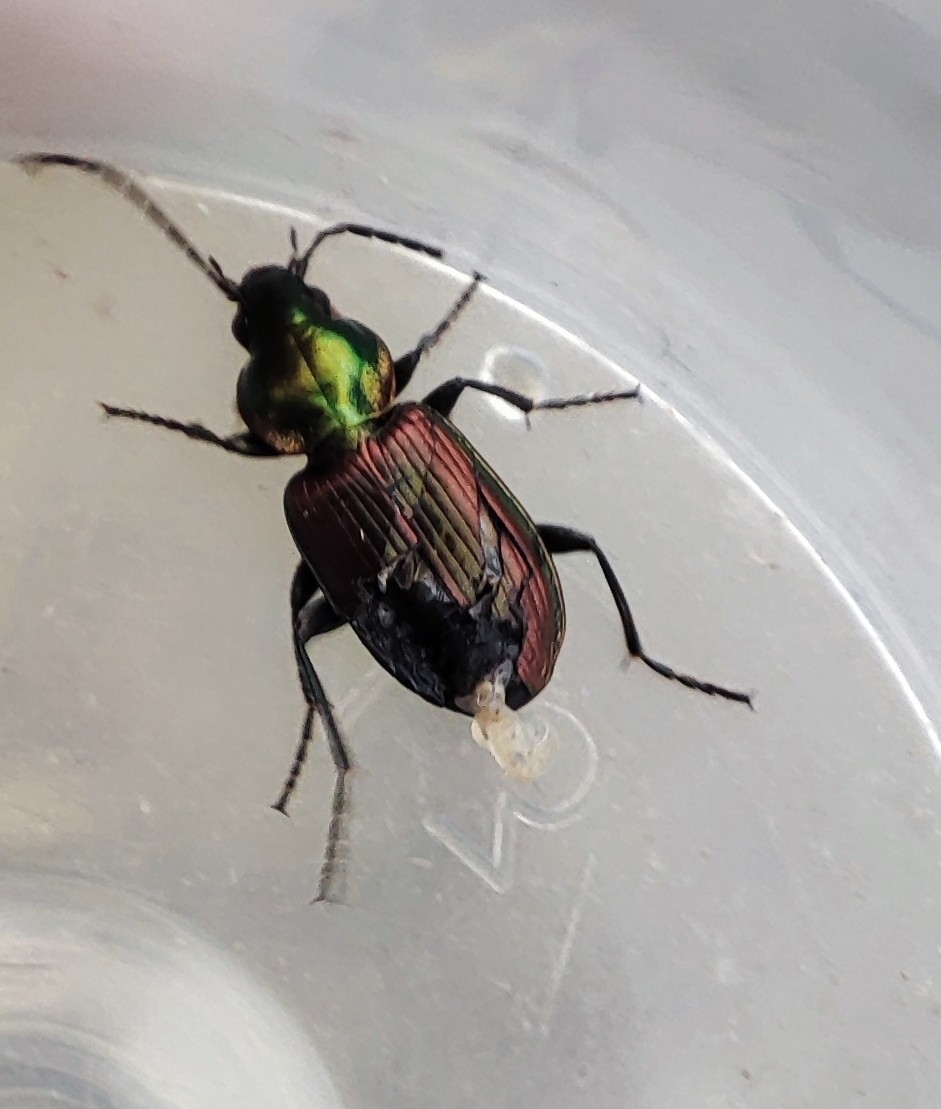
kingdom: Animalia
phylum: Arthropoda
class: Insecta
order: Coleoptera
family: Carabidae
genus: Agonum
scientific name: Agonum sexpunctatum
